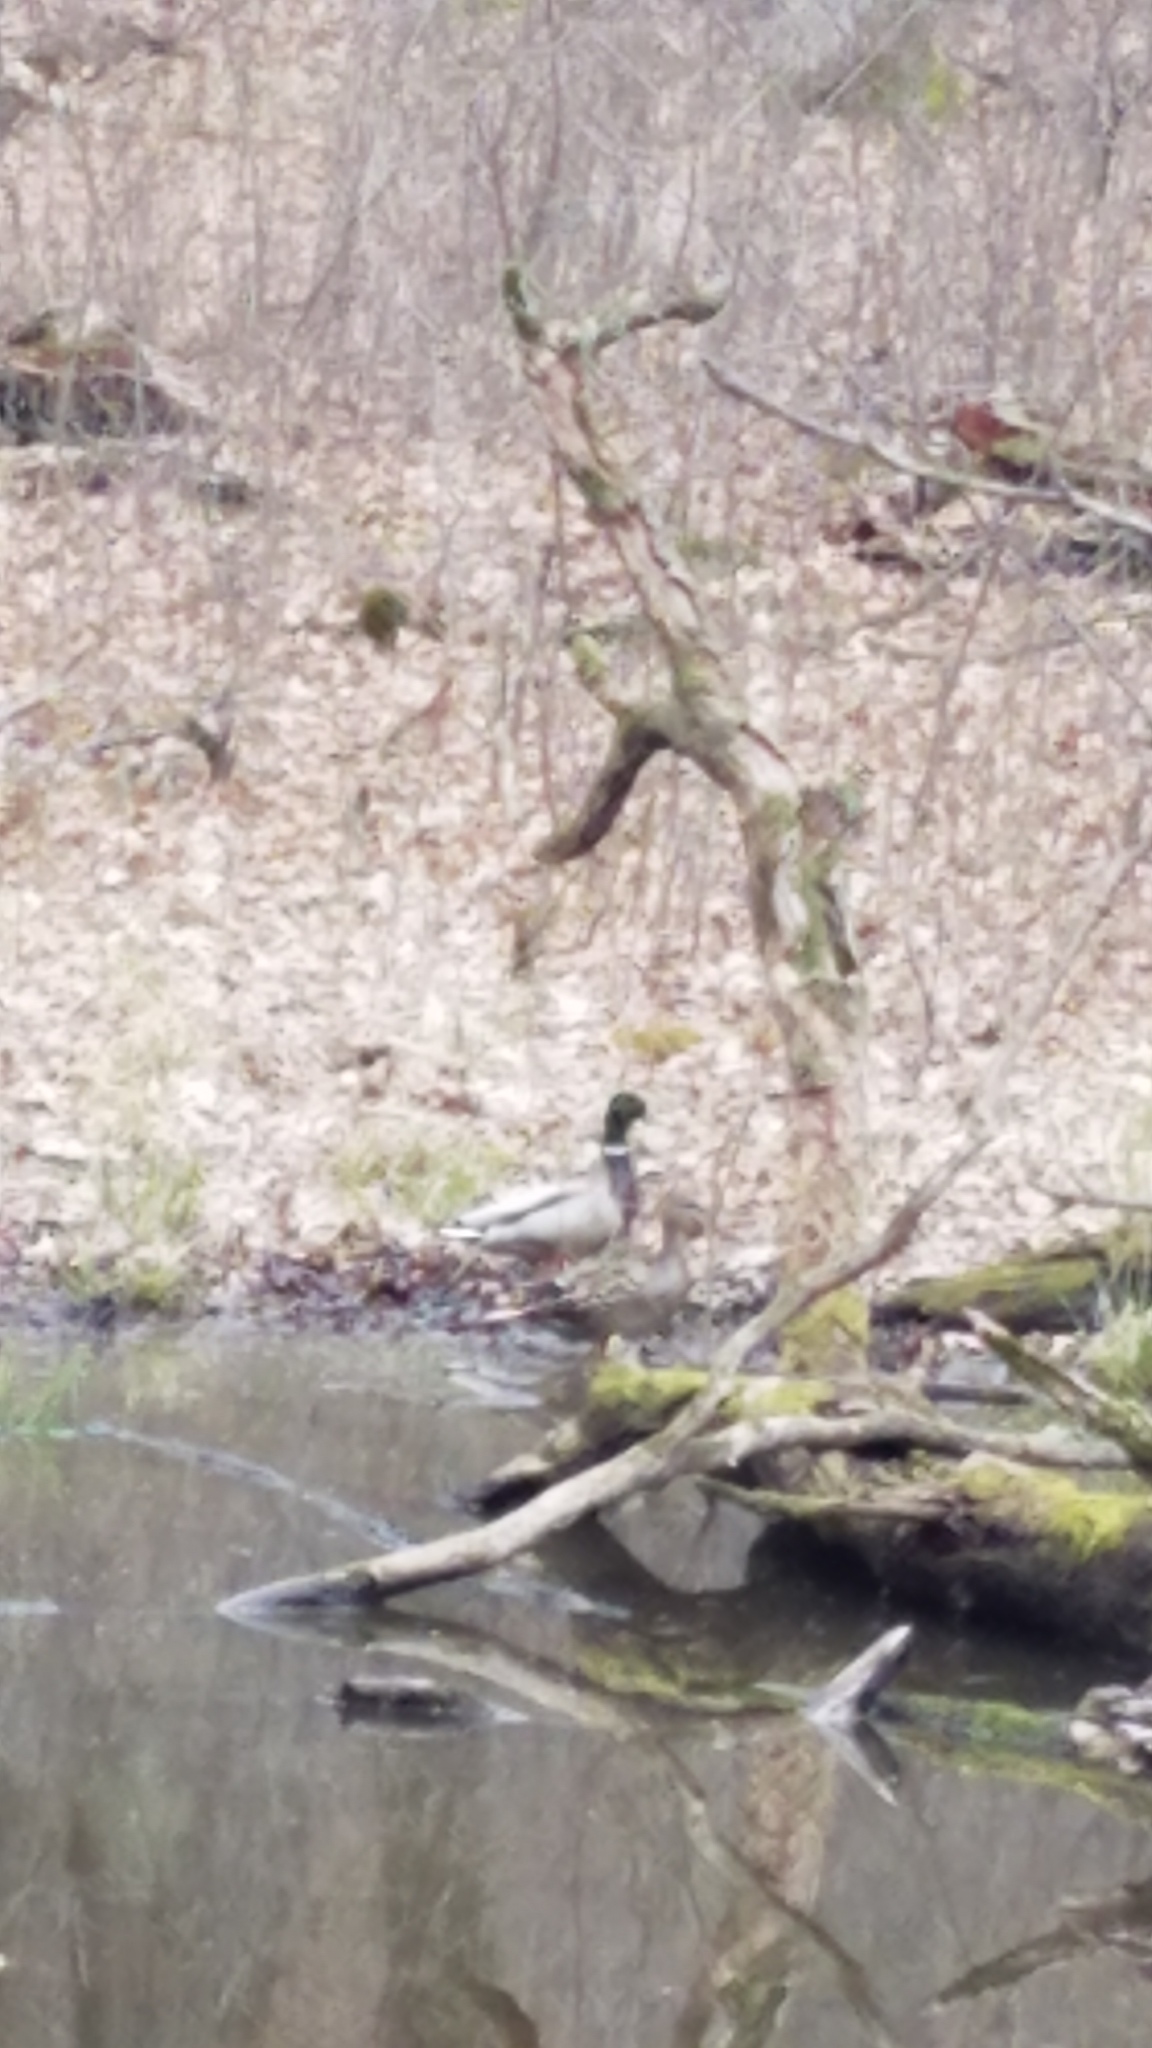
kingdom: Animalia
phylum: Chordata
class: Aves
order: Anseriformes
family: Anatidae
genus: Anas
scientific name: Anas platyrhynchos
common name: Mallard
